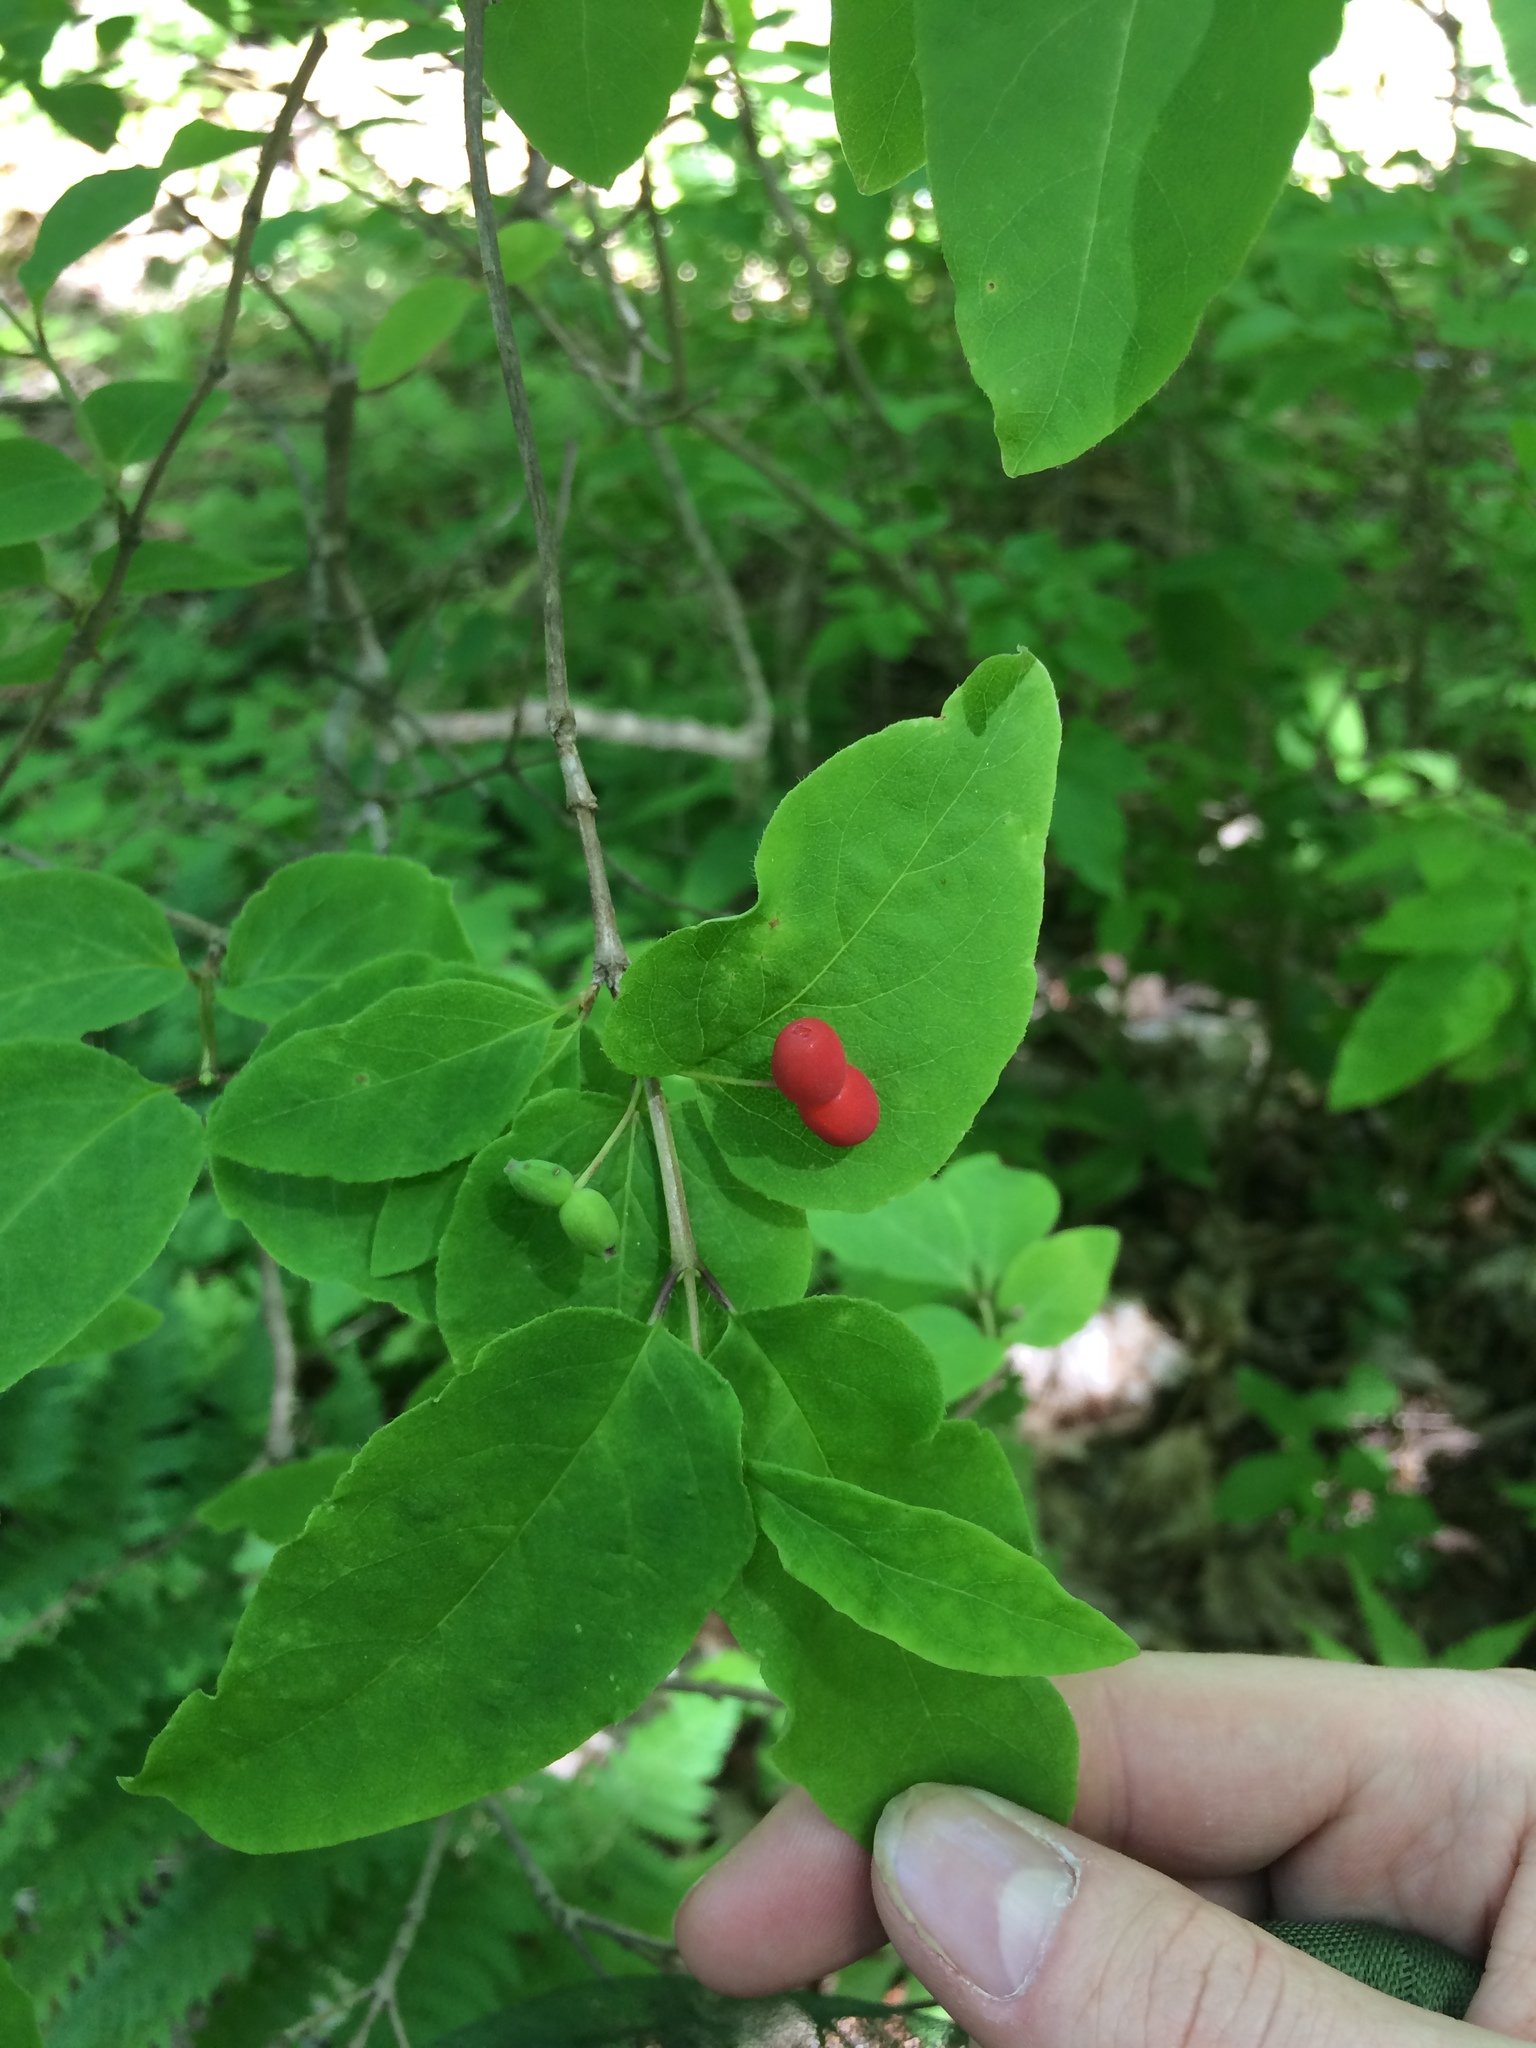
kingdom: Plantae
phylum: Tracheophyta
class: Magnoliopsida
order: Dipsacales
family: Caprifoliaceae
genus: Lonicera
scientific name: Lonicera canadensis
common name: American fly-honeysuckle
